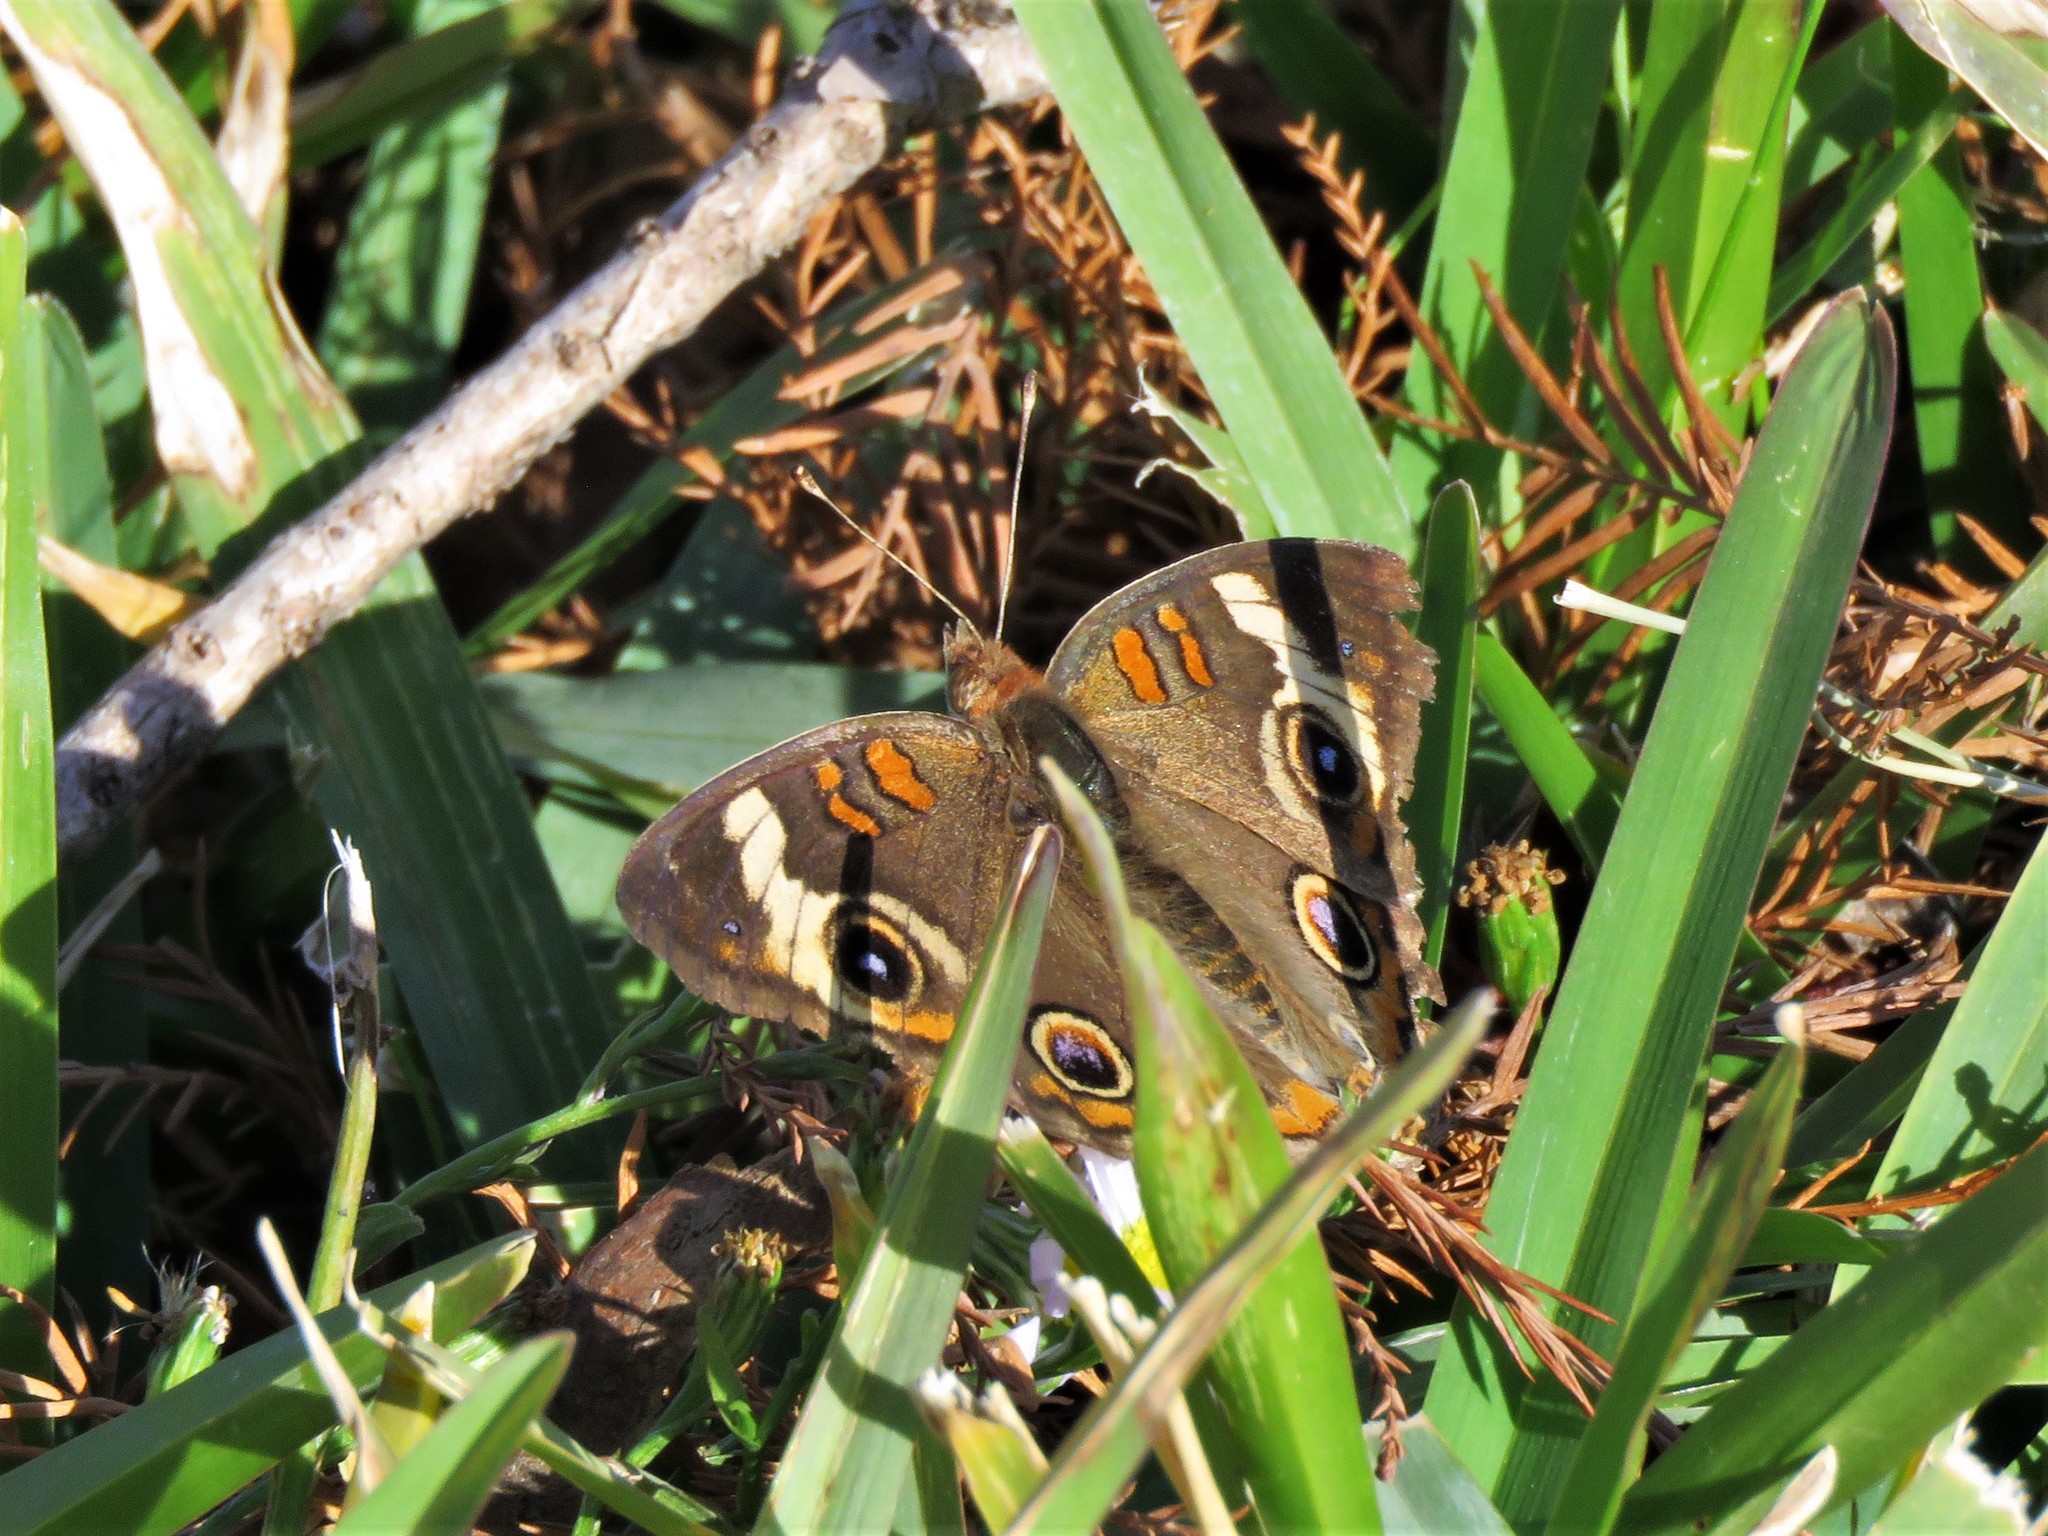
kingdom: Animalia
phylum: Arthropoda
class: Insecta
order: Lepidoptera
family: Nymphalidae
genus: Junonia
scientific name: Junonia coenia
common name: Common buckeye
